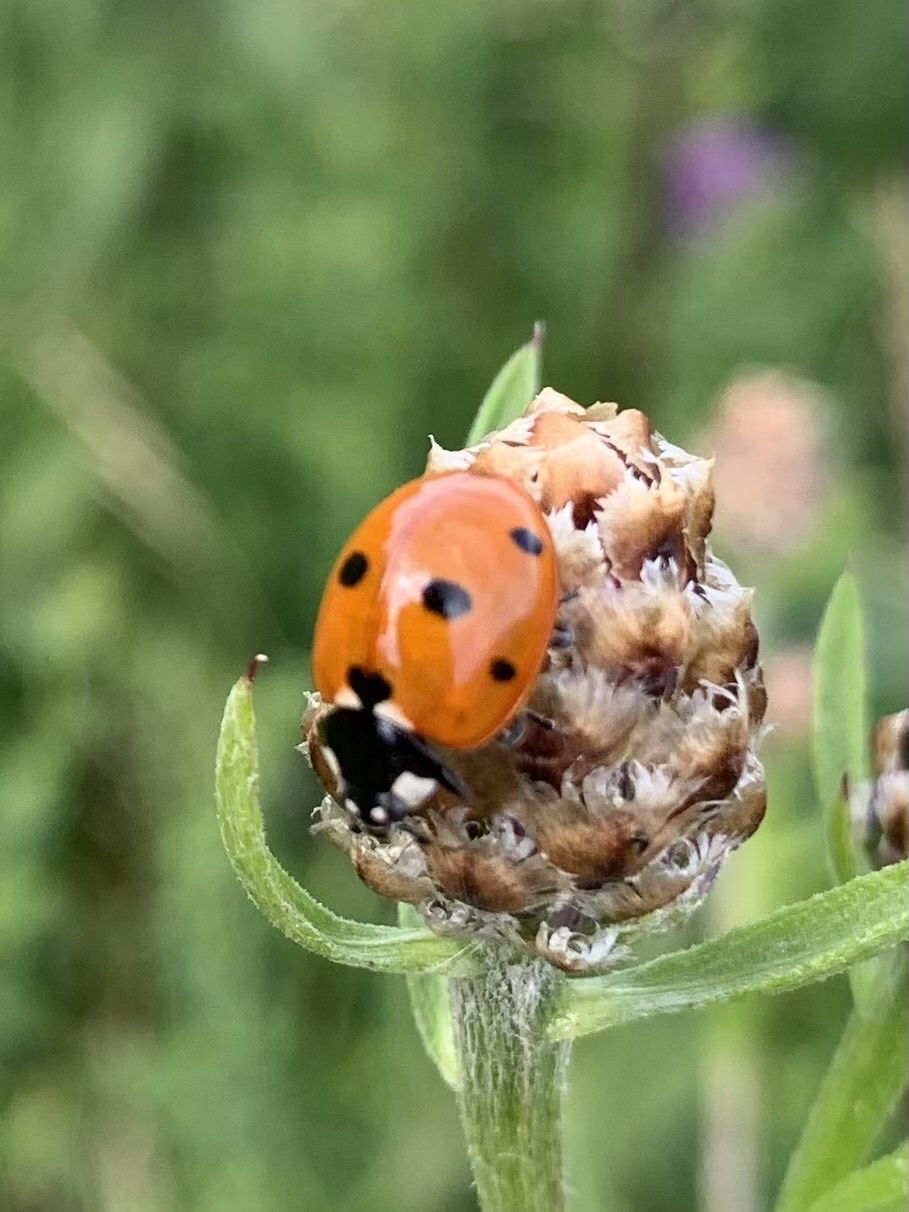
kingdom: Animalia
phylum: Arthropoda
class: Insecta
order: Coleoptera
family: Coccinellidae
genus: Coccinella
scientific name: Coccinella septempunctata
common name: Sevenspotted lady beetle
